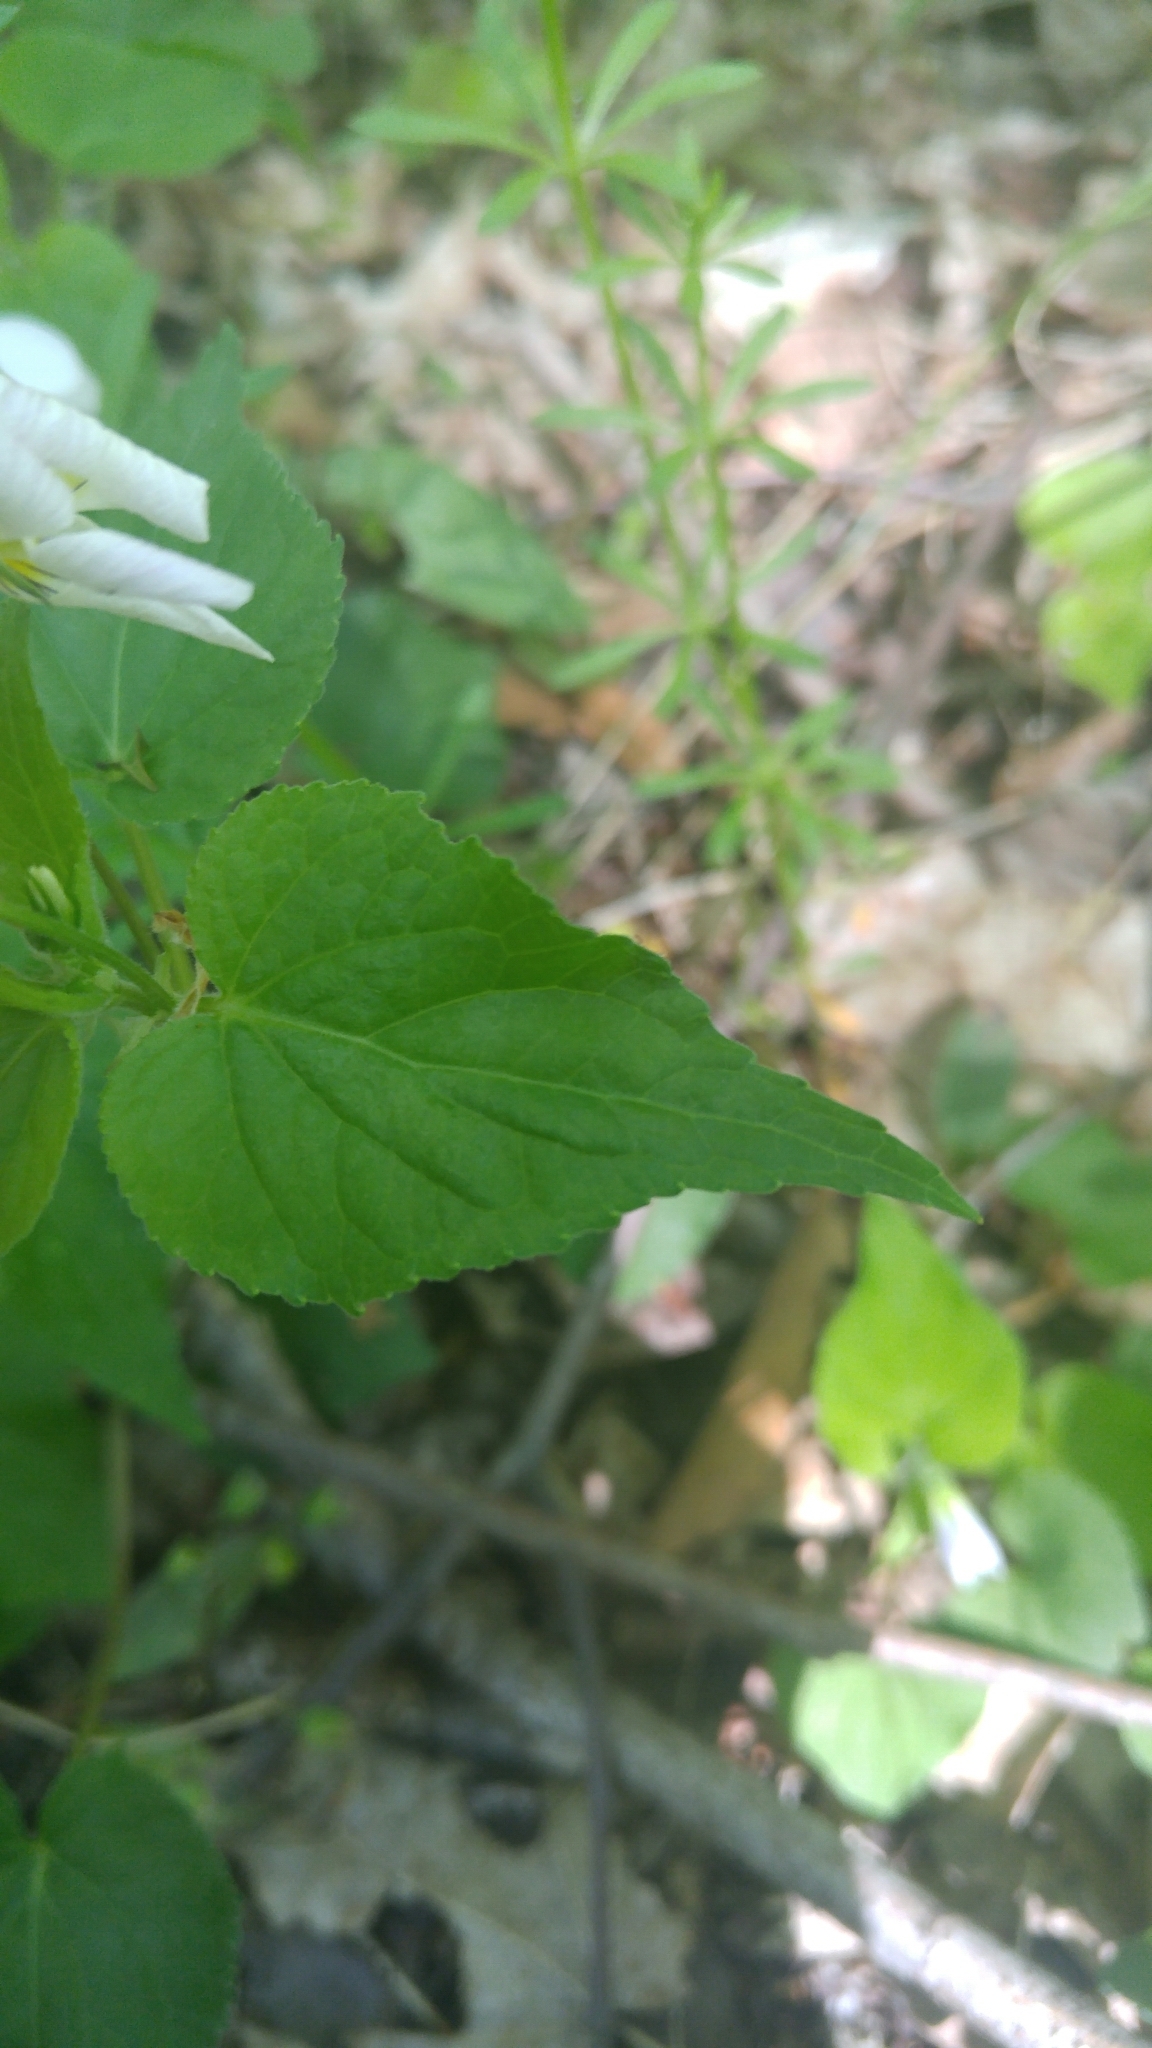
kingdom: Plantae
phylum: Tracheophyta
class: Magnoliopsida
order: Malpighiales
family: Violaceae
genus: Viola
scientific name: Viola canadensis
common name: Canada violet
